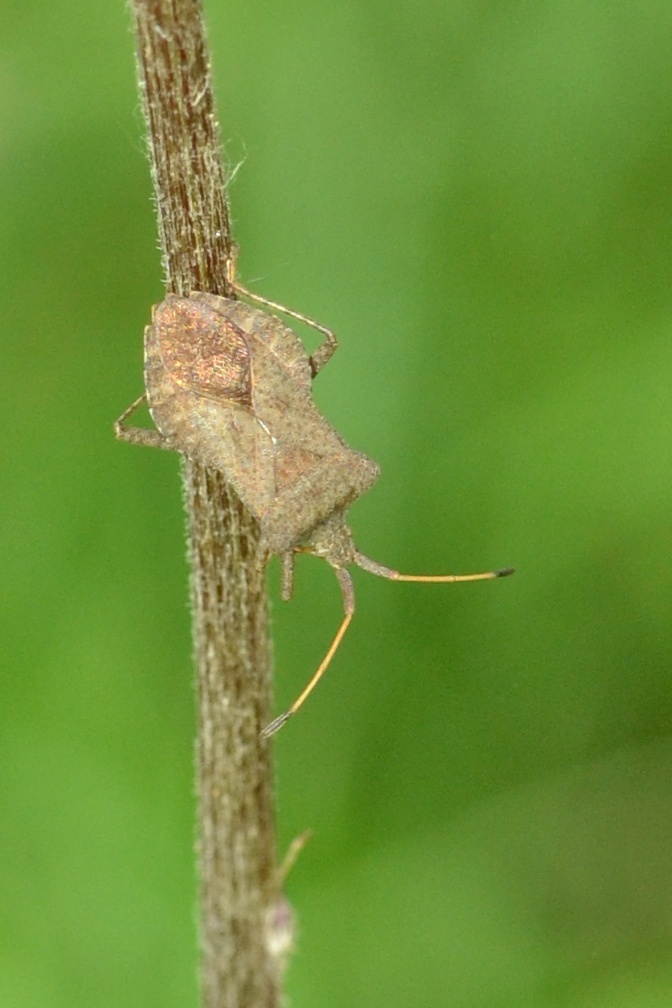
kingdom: Animalia
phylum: Arthropoda
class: Insecta
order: Hemiptera
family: Coreidae
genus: Coreus
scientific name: Coreus marginatus
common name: Dock bug
